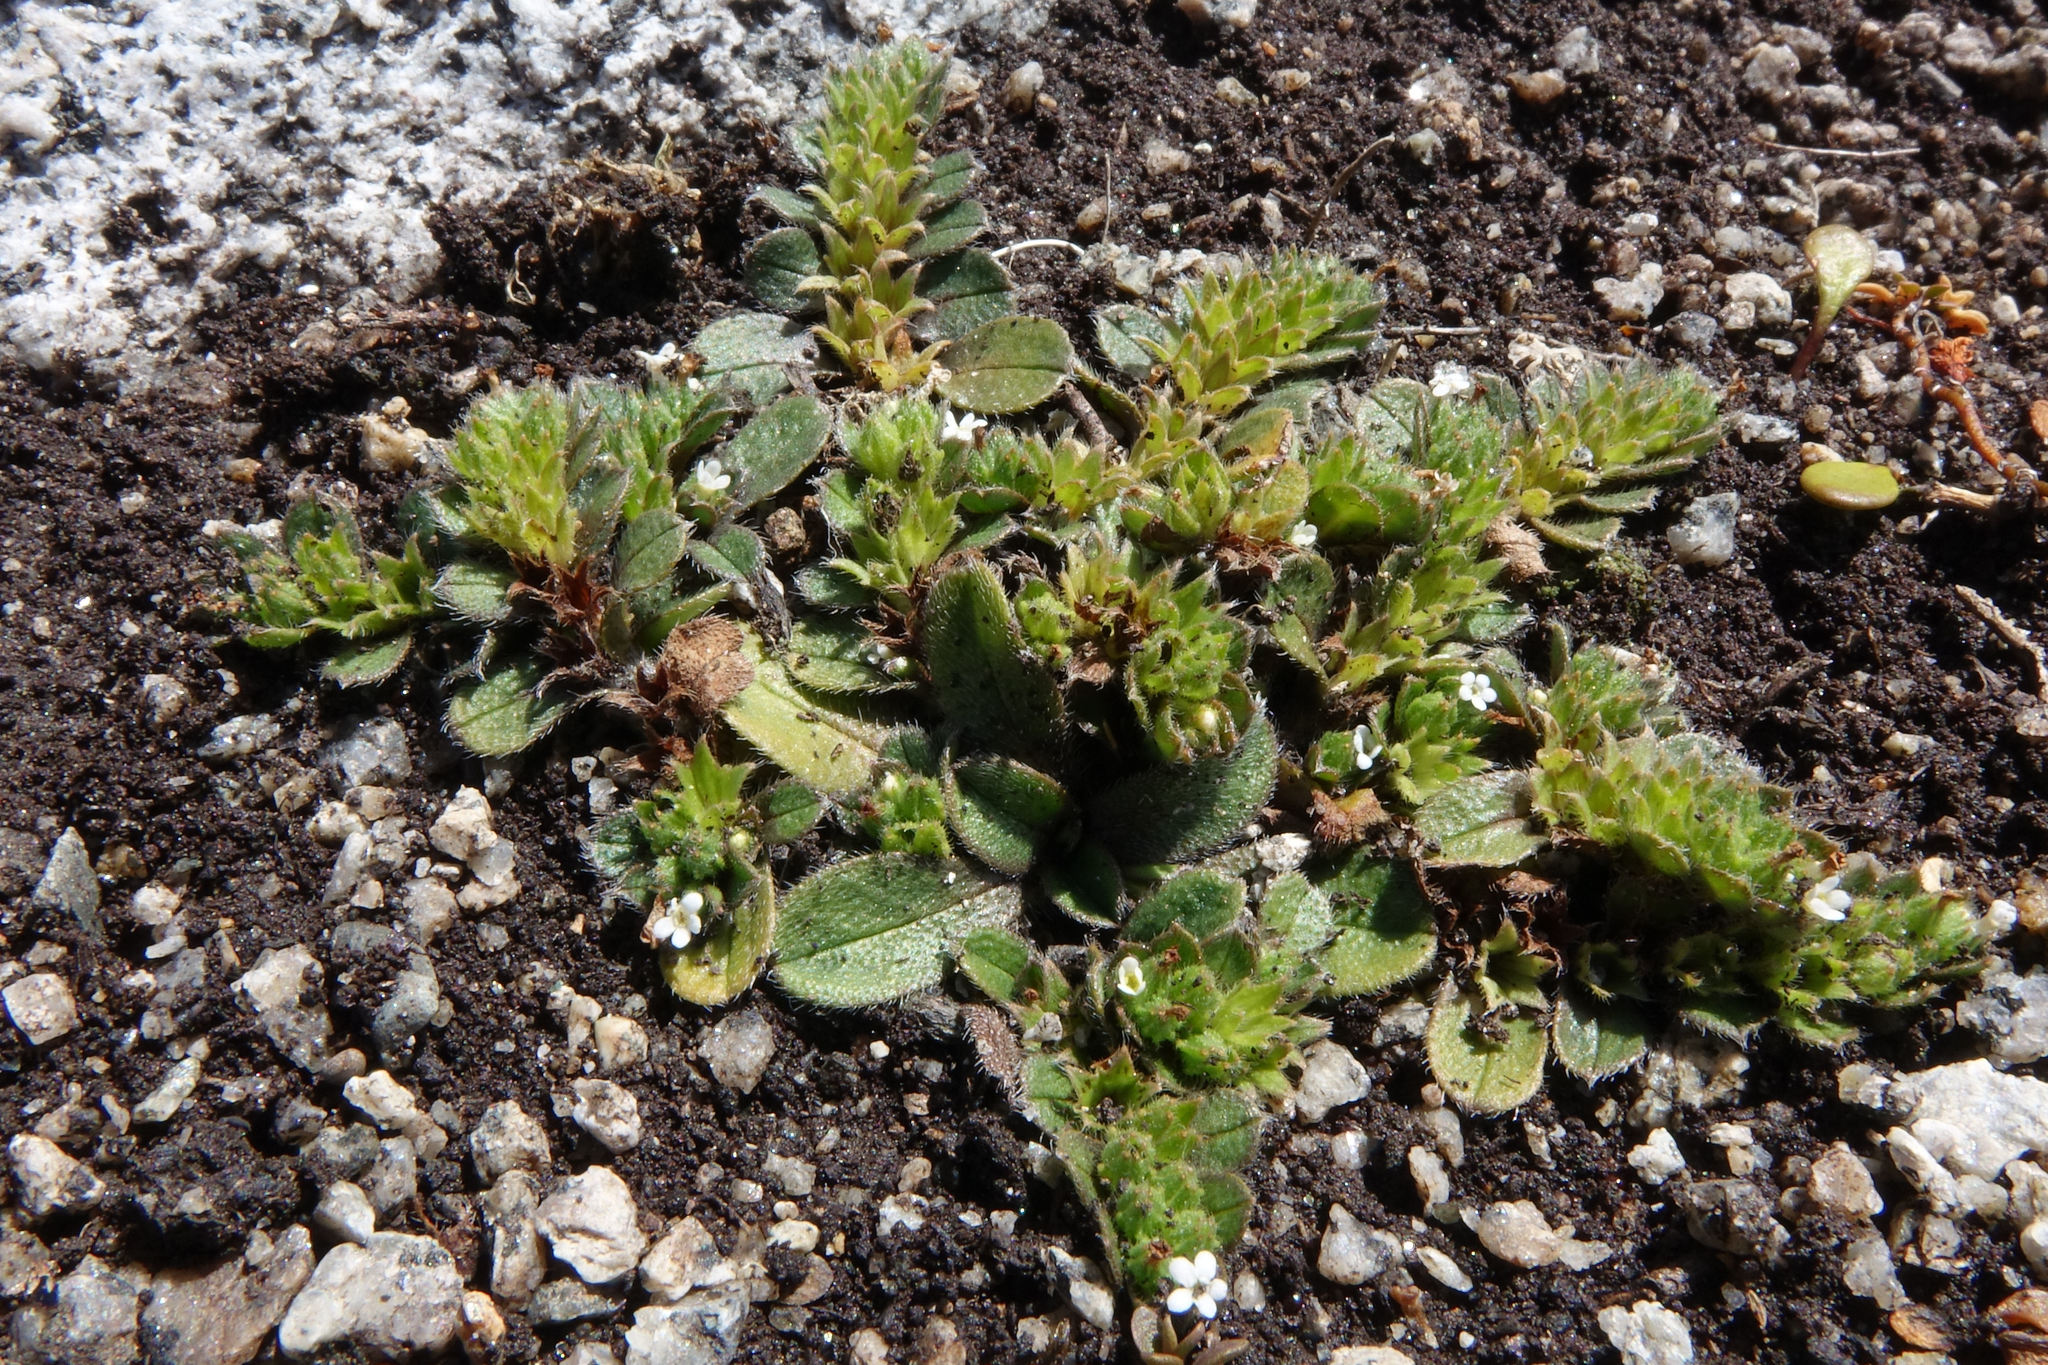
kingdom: Plantae
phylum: Tracheophyta
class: Magnoliopsida
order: Boraginales
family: Boraginaceae
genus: Myosotis
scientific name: Myosotis antarctica
